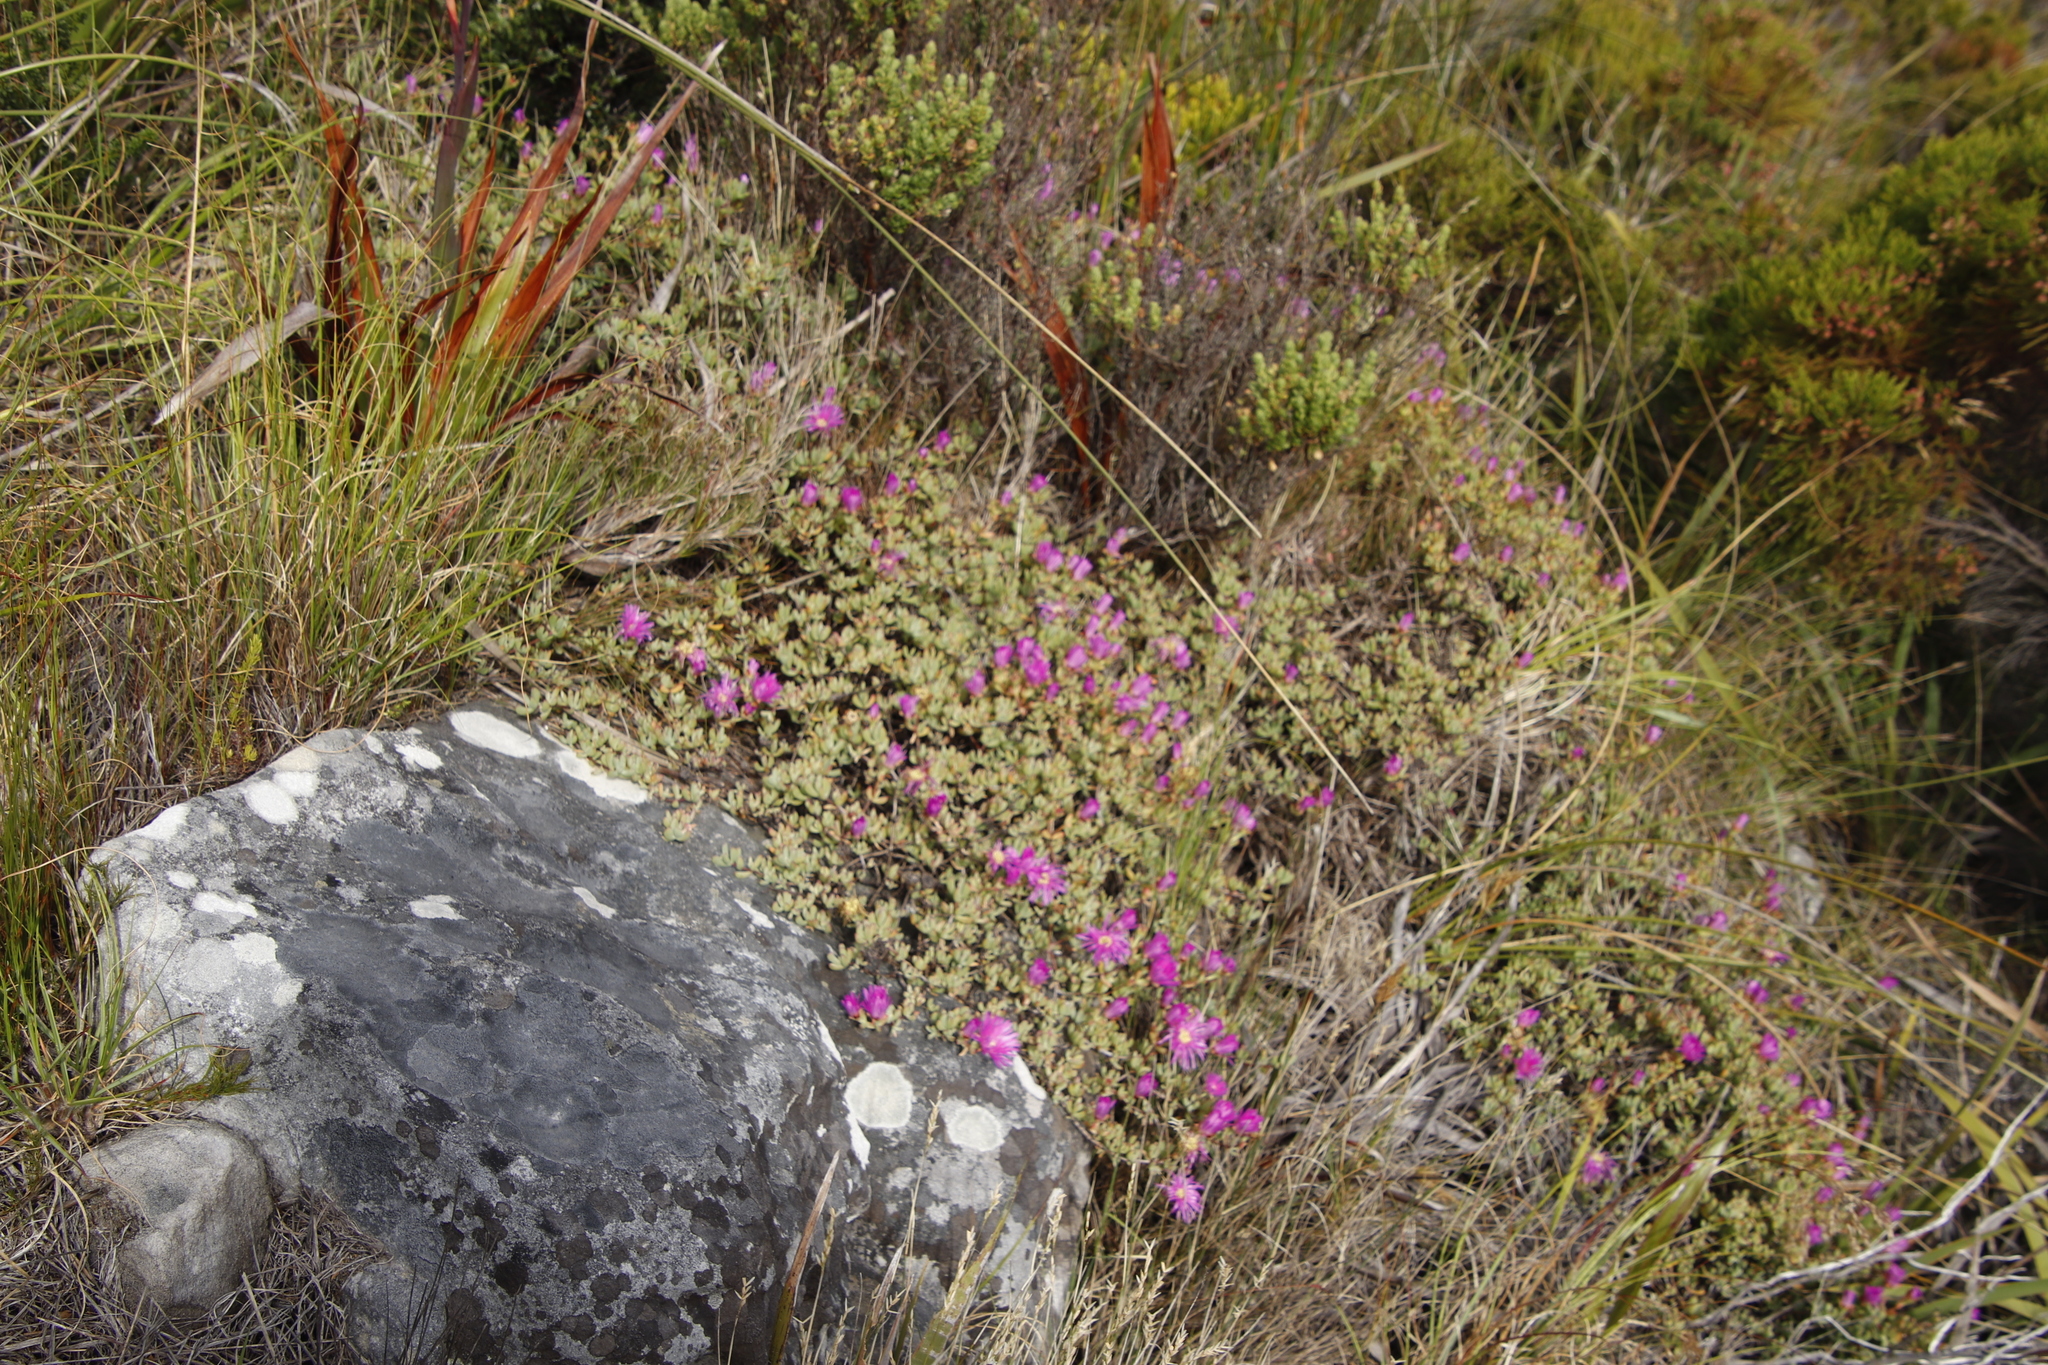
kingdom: Plantae
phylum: Tracheophyta
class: Magnoliopsida
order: Caryophyllales
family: Aizoaceae
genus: Oscularia
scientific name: Oscularia falciformis
